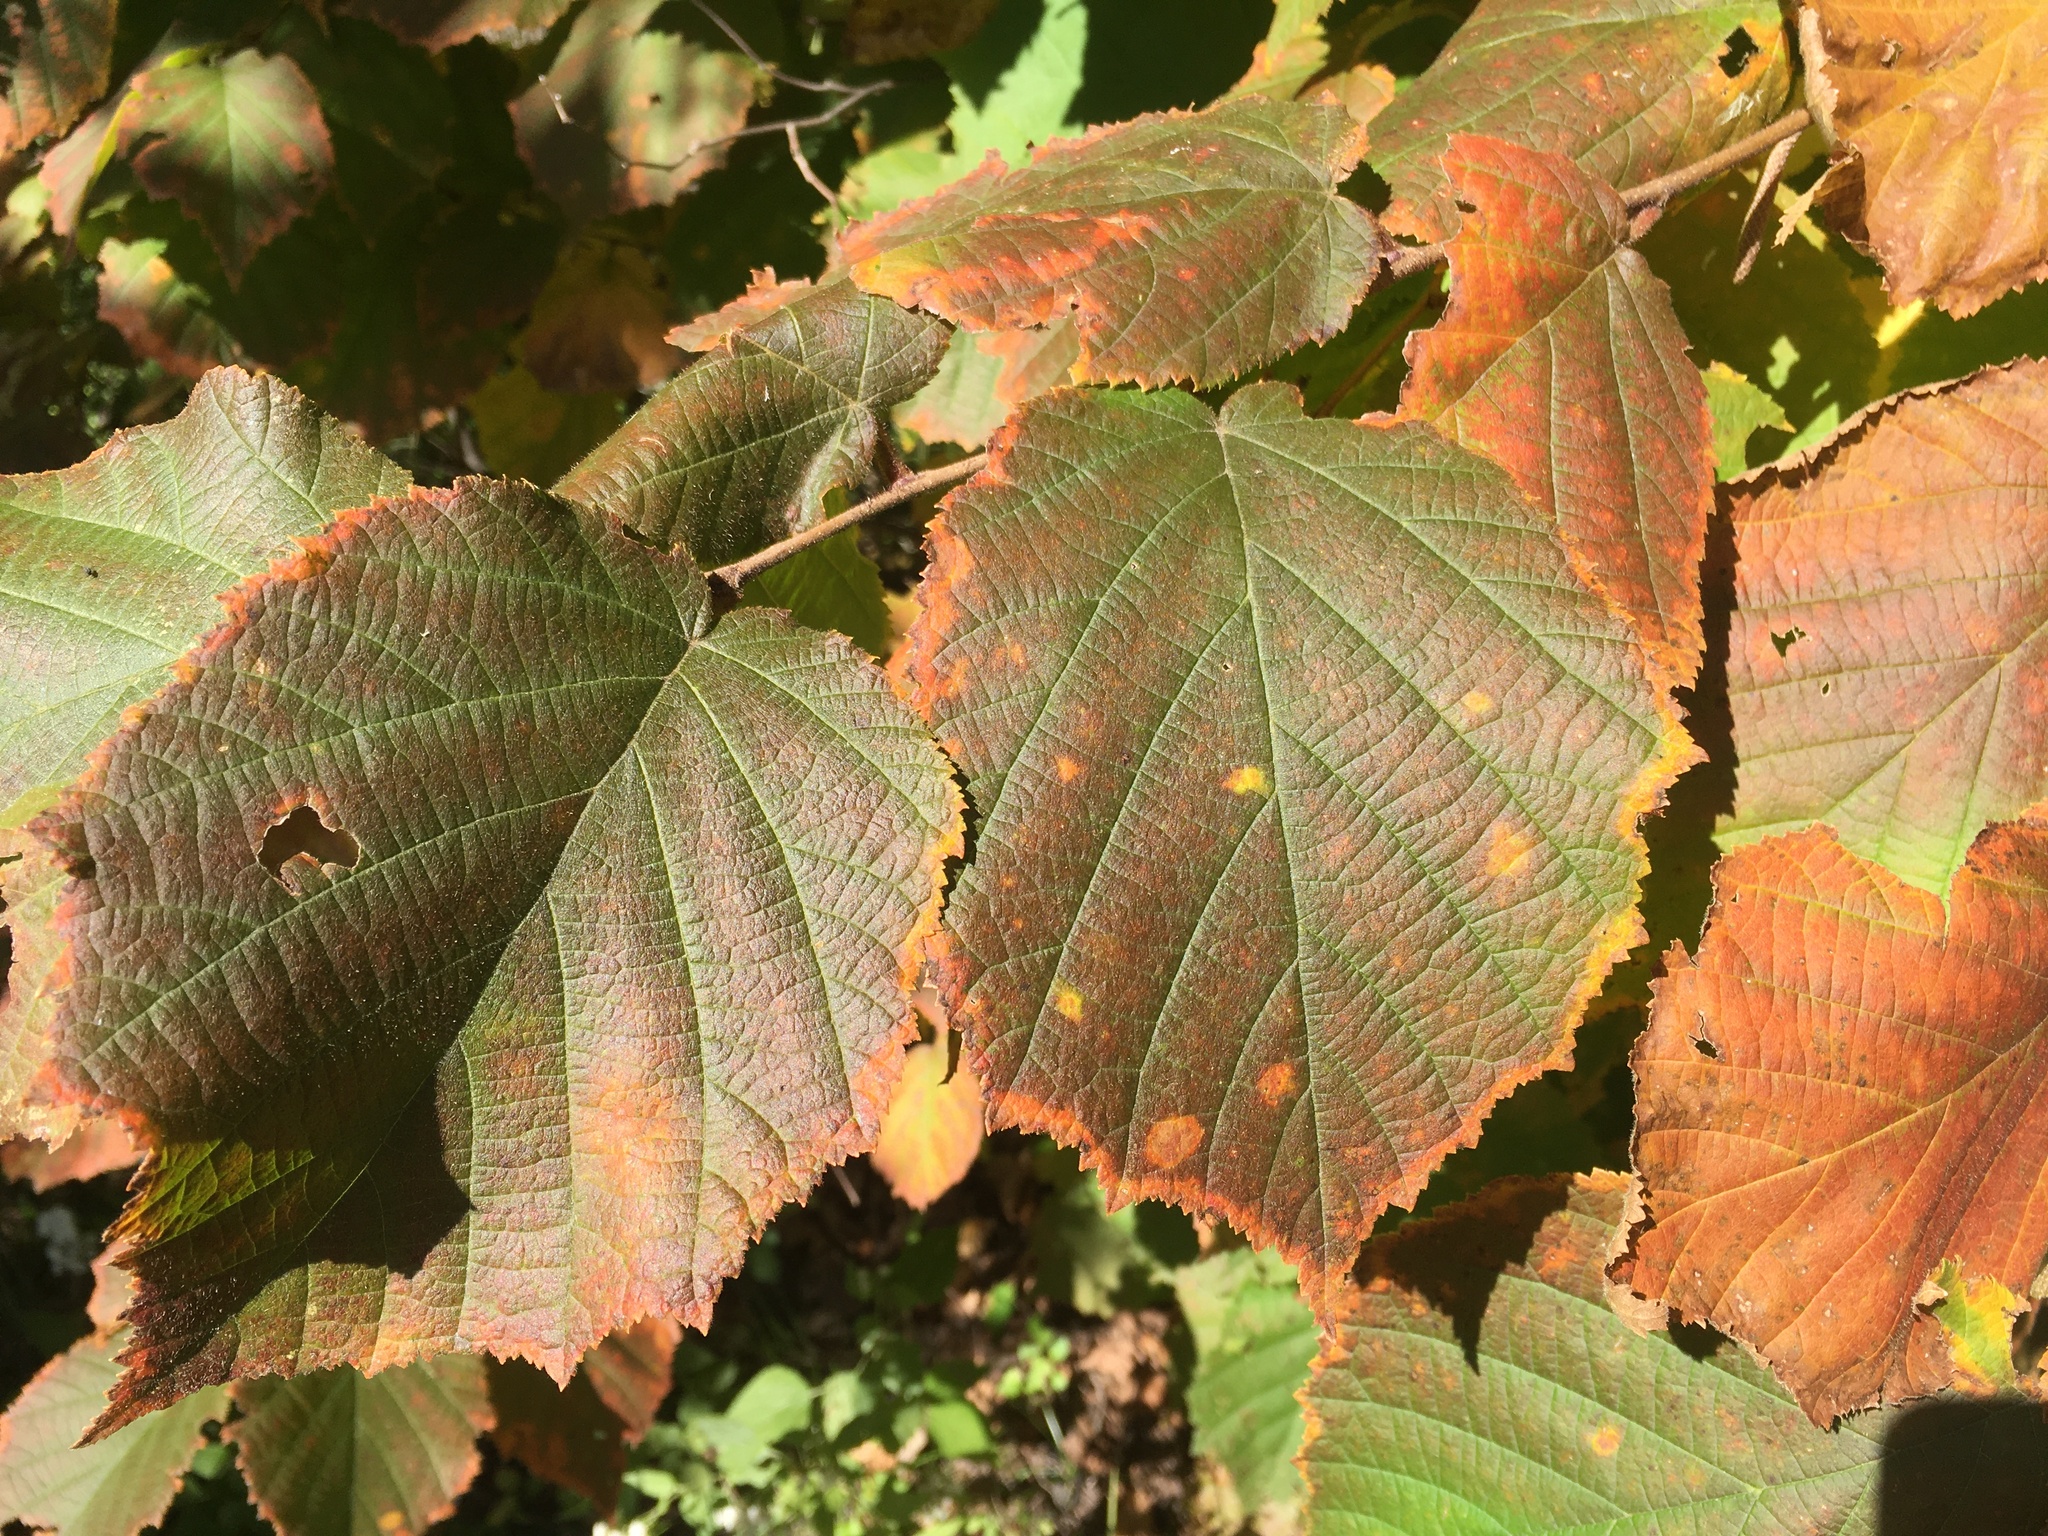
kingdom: Plantae
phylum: Tracheophyta
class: Magnoliopsida
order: Fagales
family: Betulaceae
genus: Corylus
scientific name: Corylus americana
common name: American hazel
